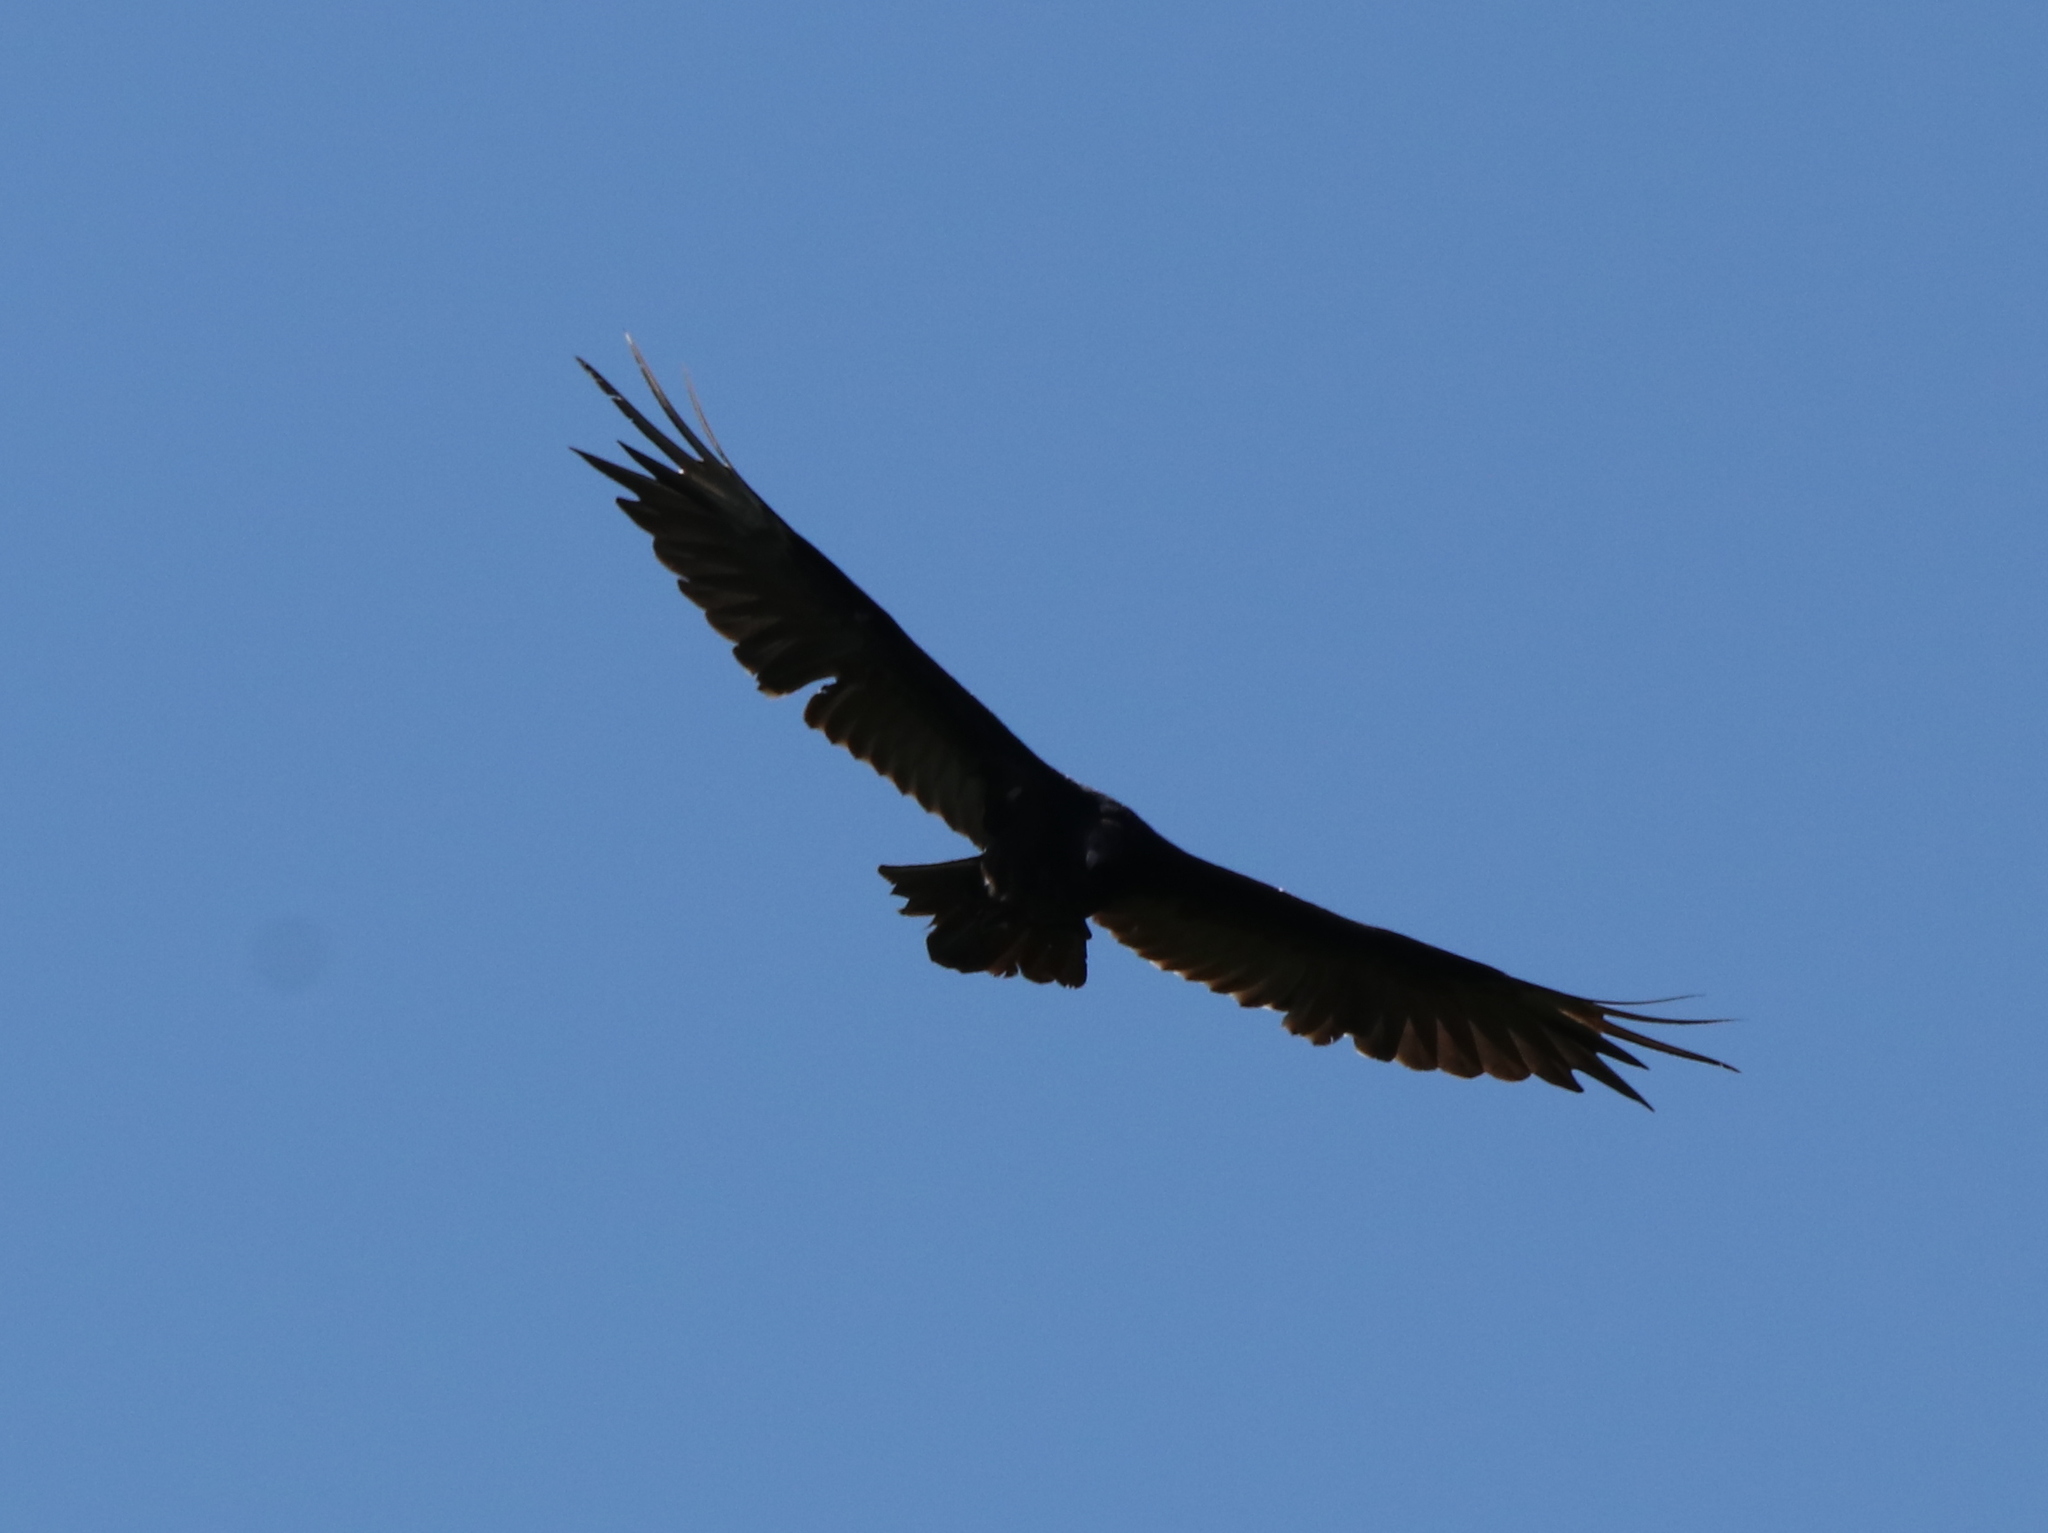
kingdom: Animalia
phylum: Chordata
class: Aves
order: Accipitriformes
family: Cathartidae
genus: Cathartes
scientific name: Cathartes aura
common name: Turkey vulture
